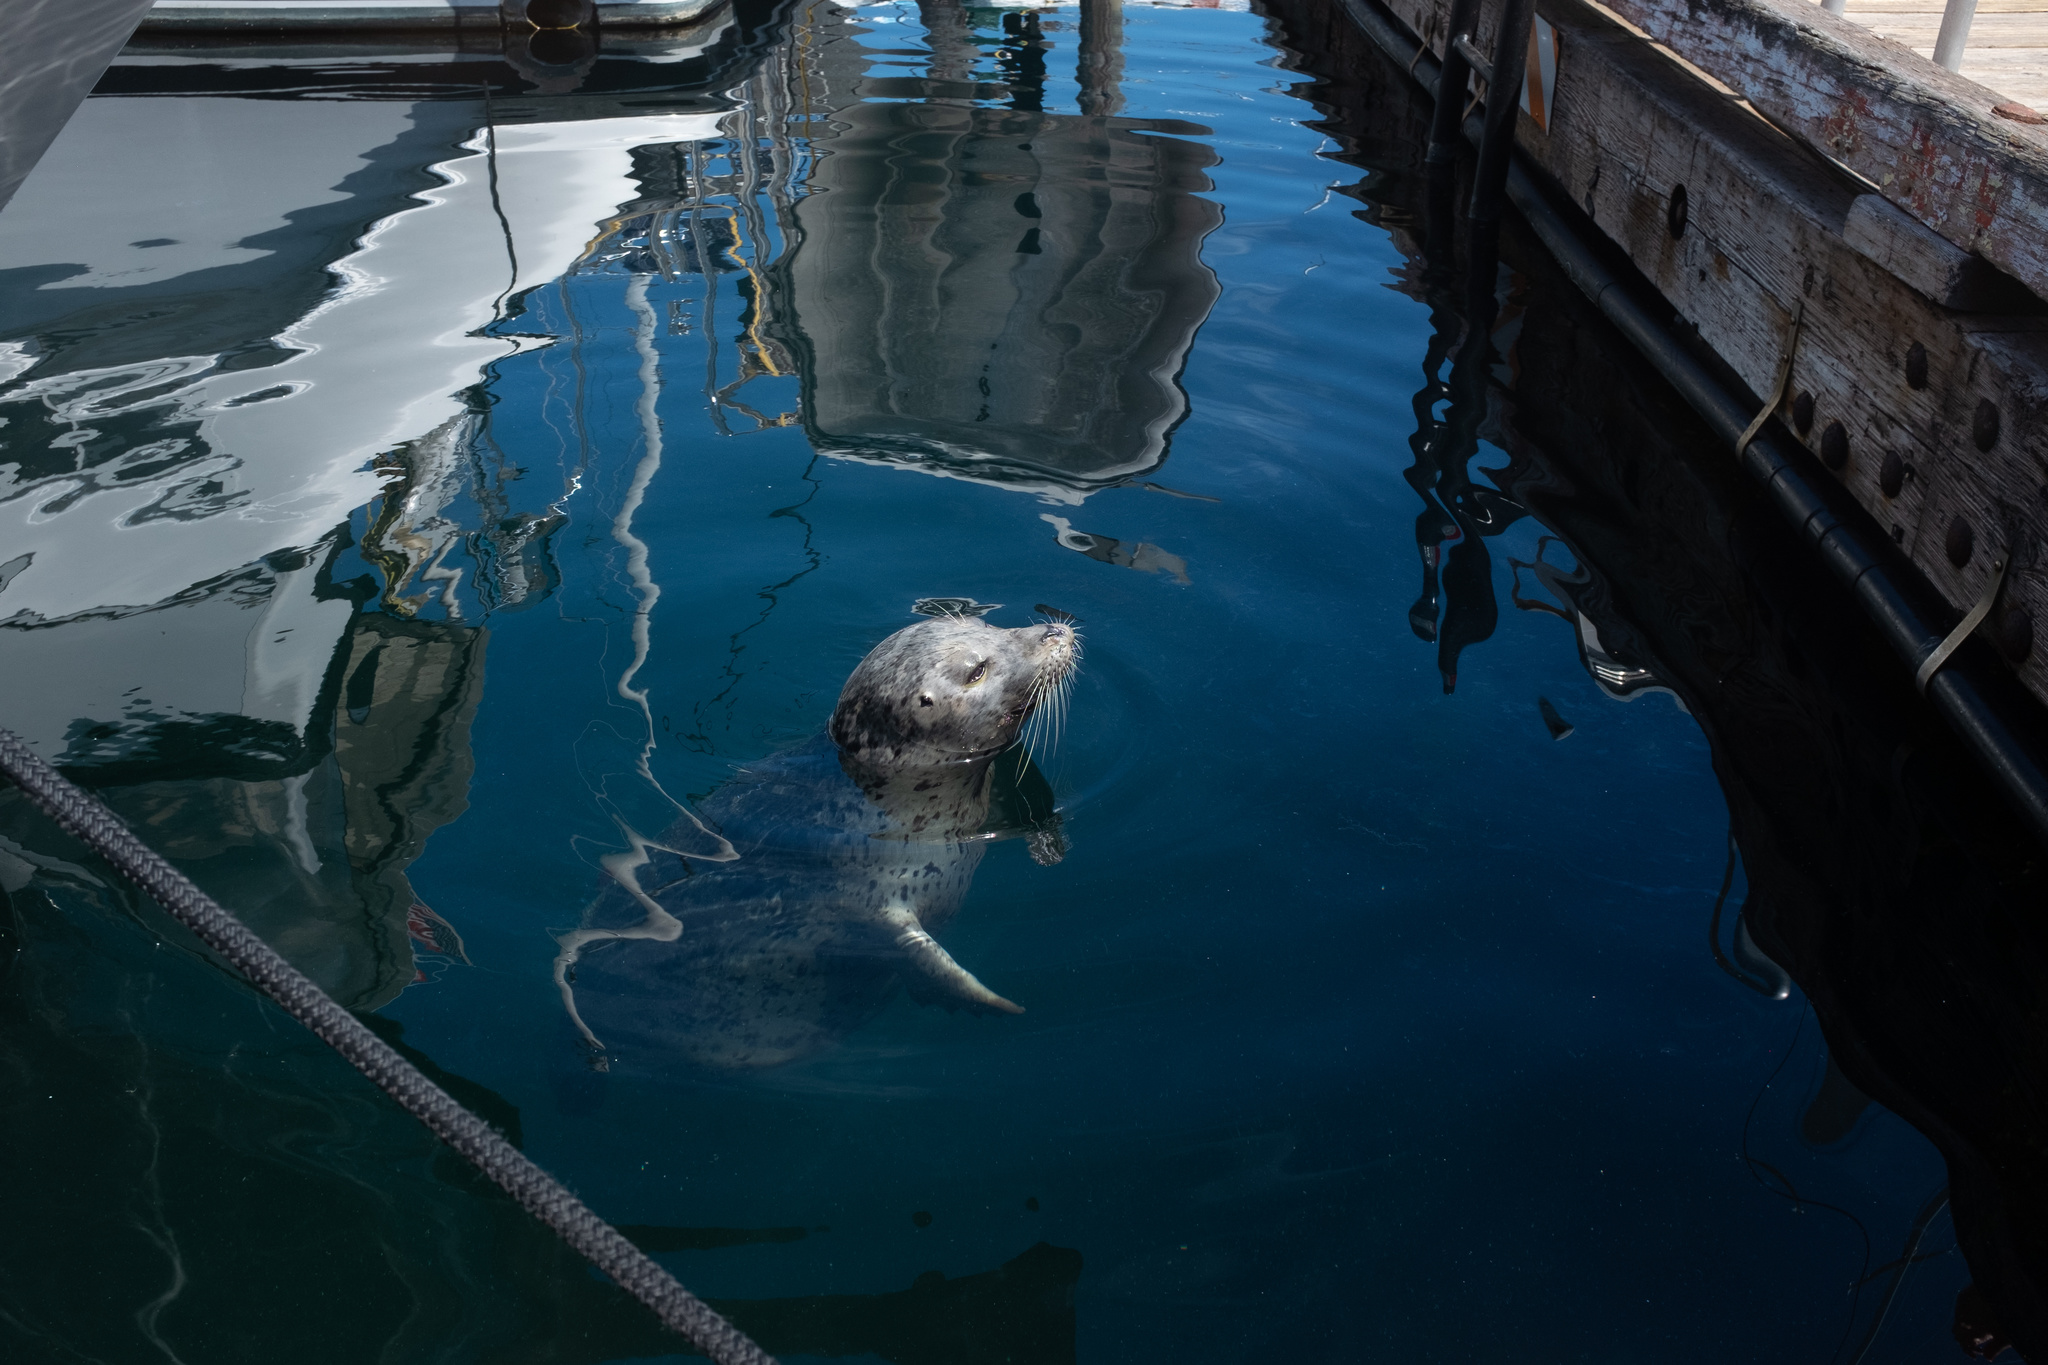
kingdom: Animalia
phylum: Chordata
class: Mammalia
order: Carnivora
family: Phocidae
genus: Phoca
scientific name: Phoca vitulina
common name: Harbor seal
